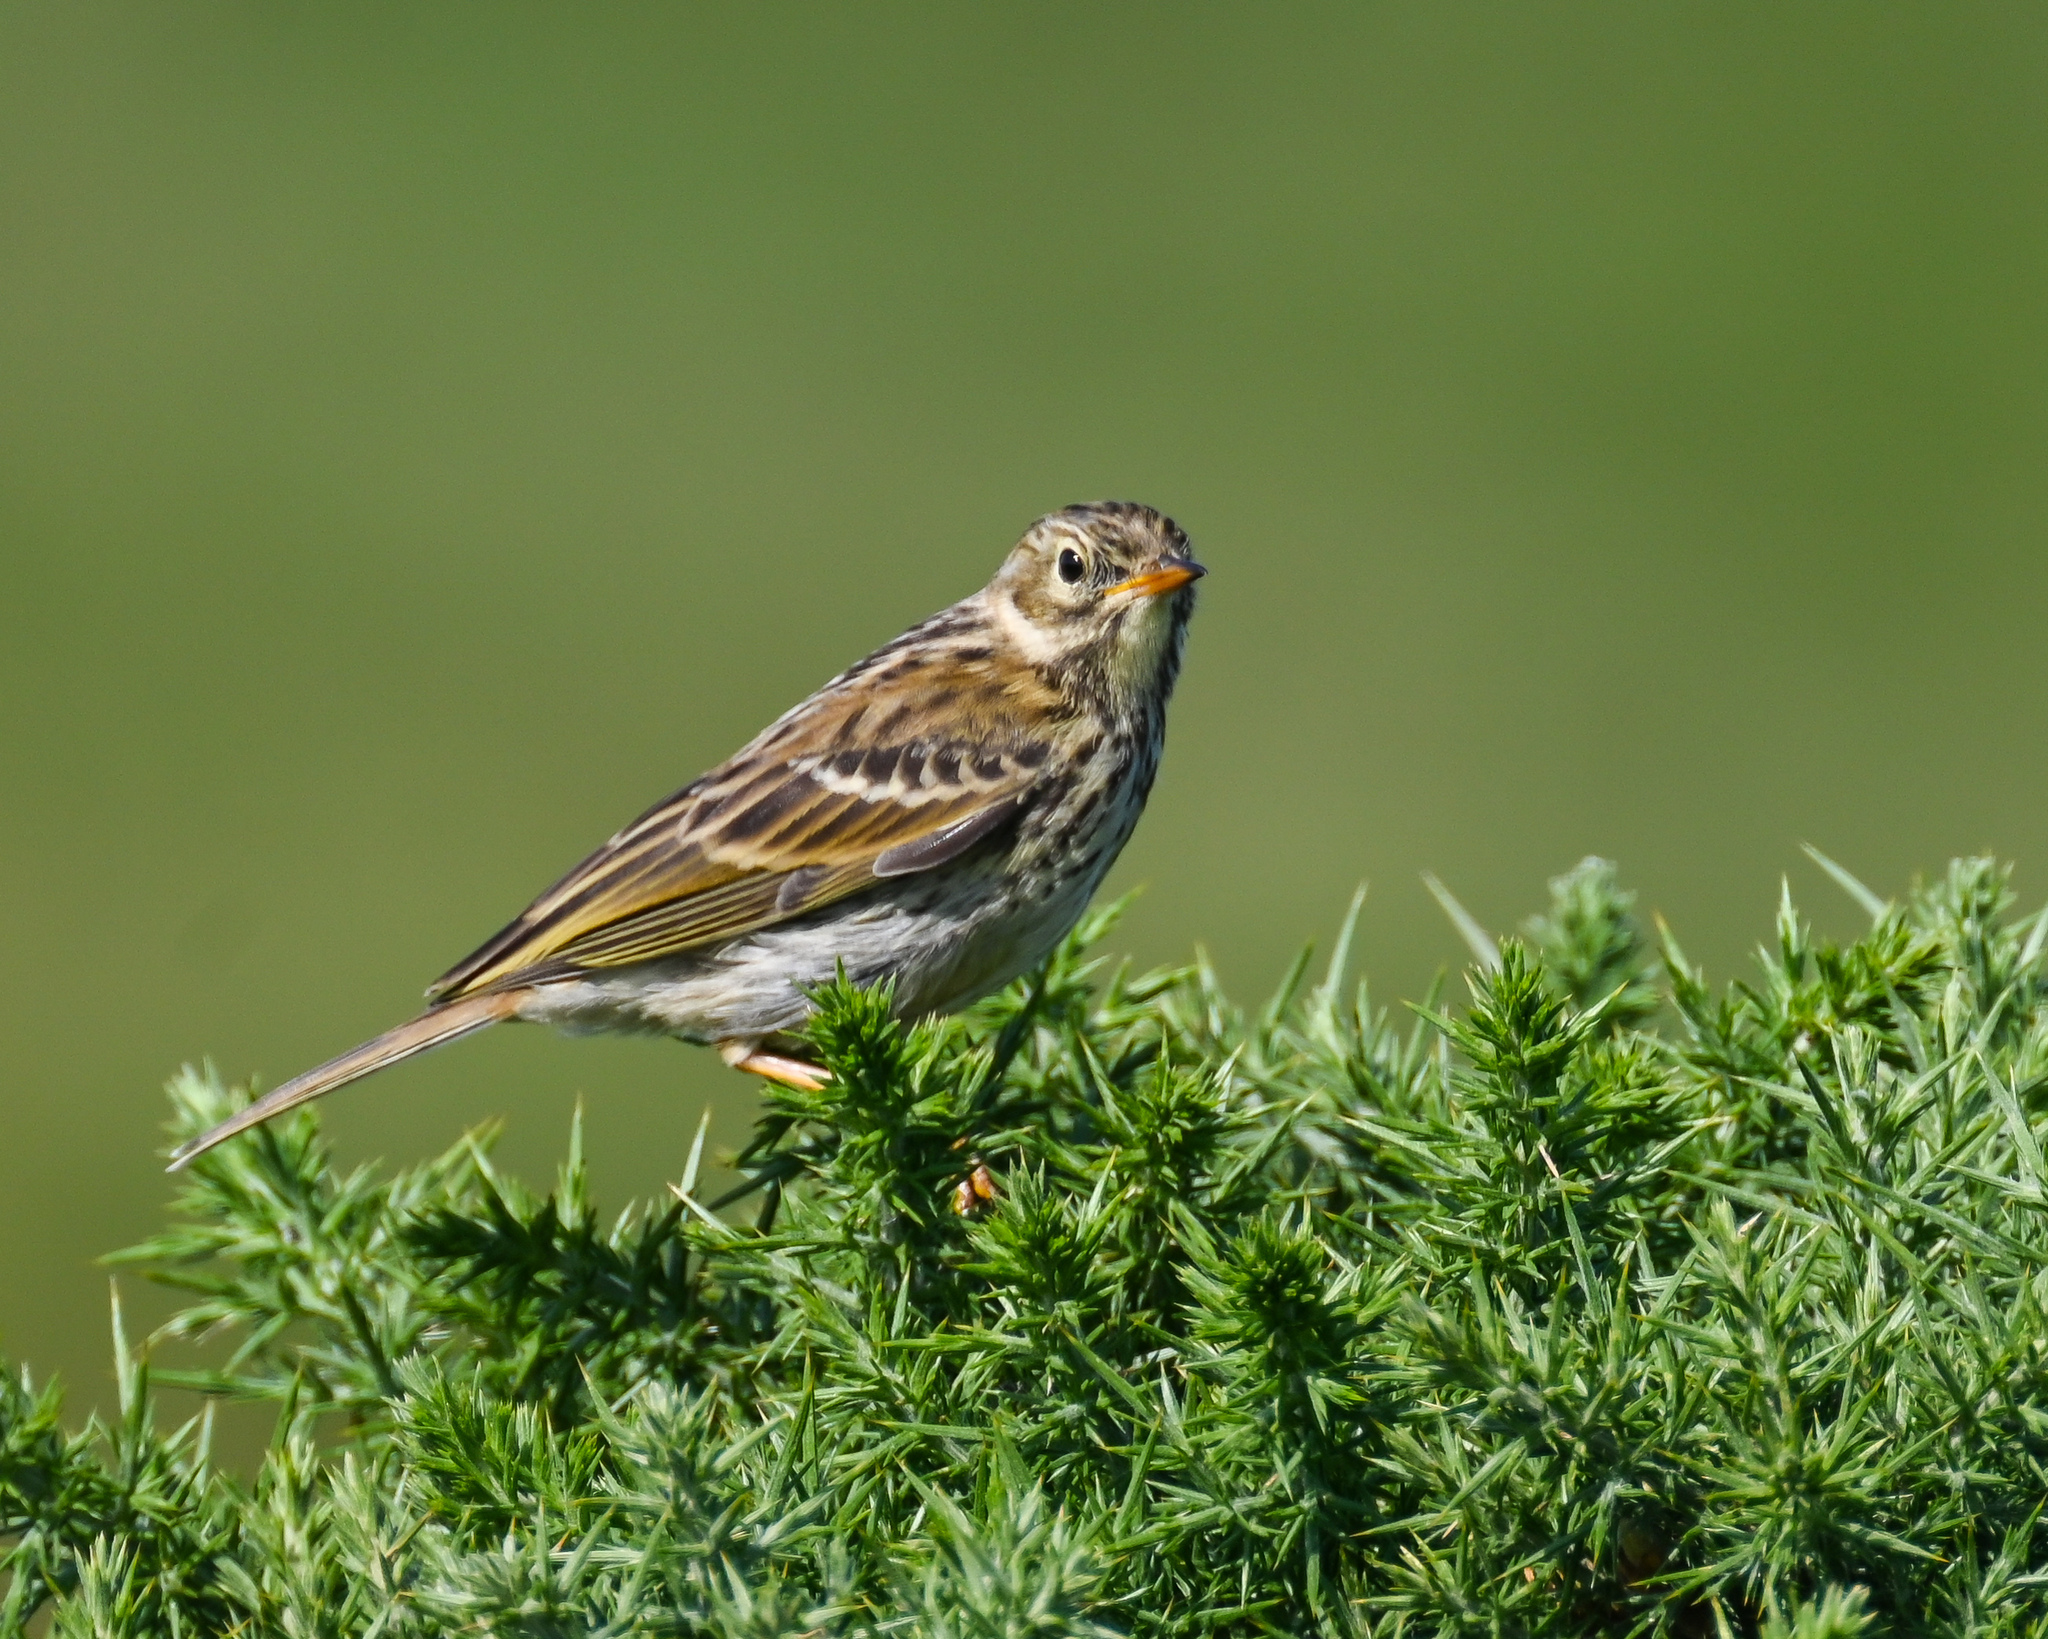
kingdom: Animalia
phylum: Chordata
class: Aves
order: Passeriformes
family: Motacillidae
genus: Anthus
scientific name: Anthus pratensis
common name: Meadow pipit
